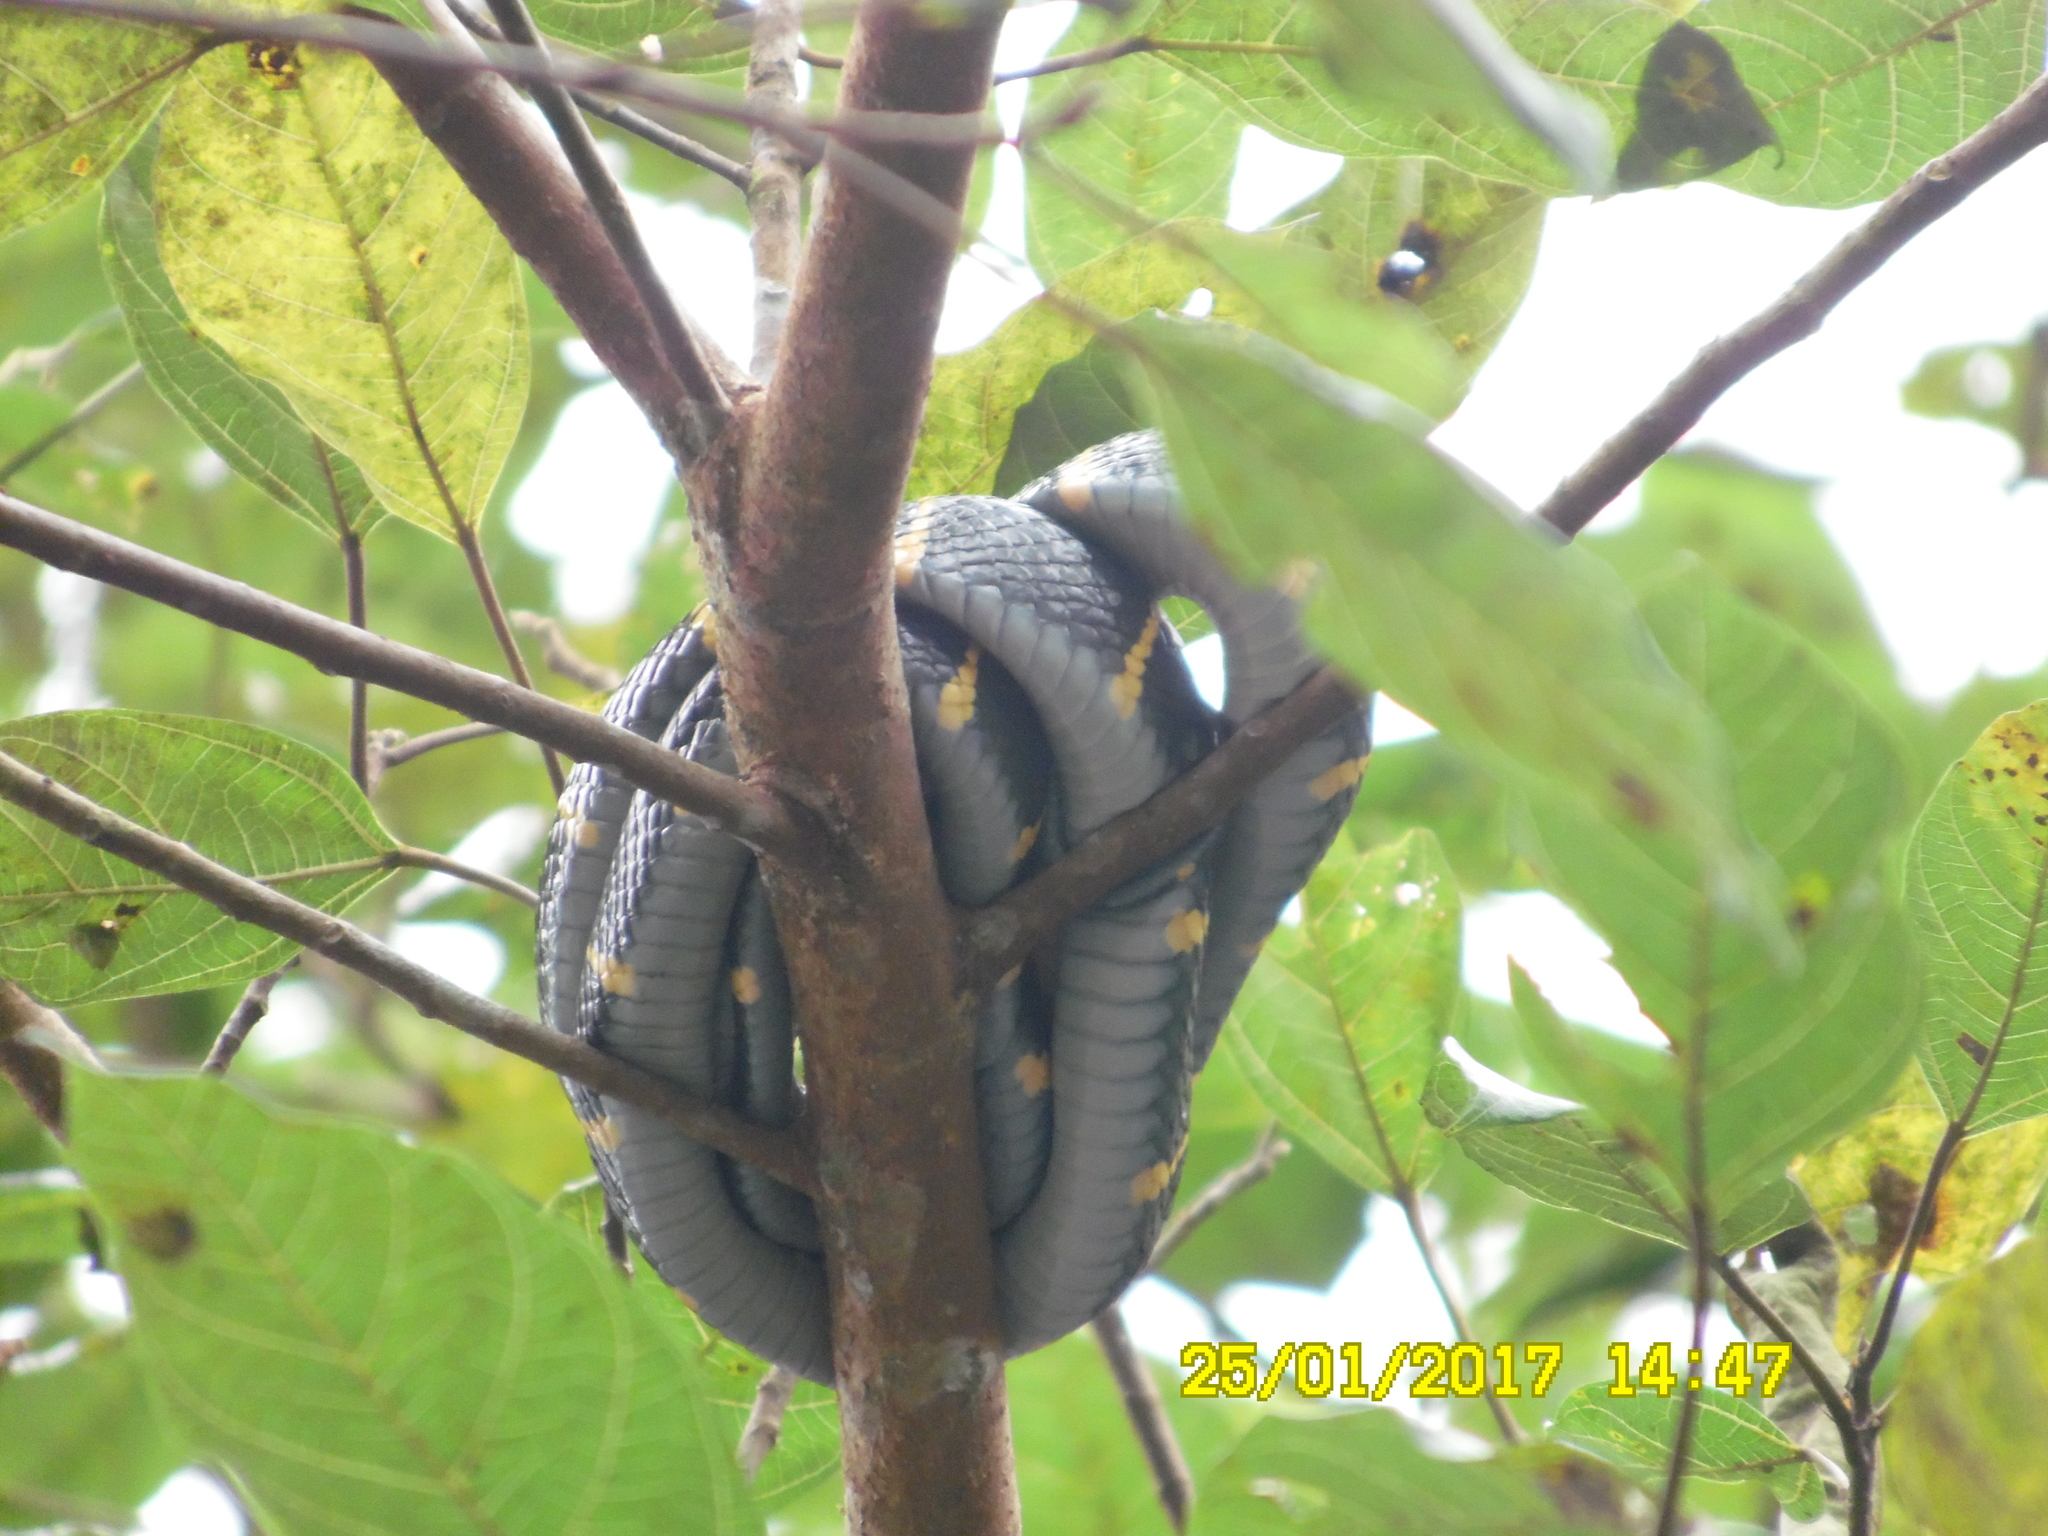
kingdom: Animalia
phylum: Chordata
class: Squamata
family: Colubridae
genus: Boiga
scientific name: Boiga melanota
